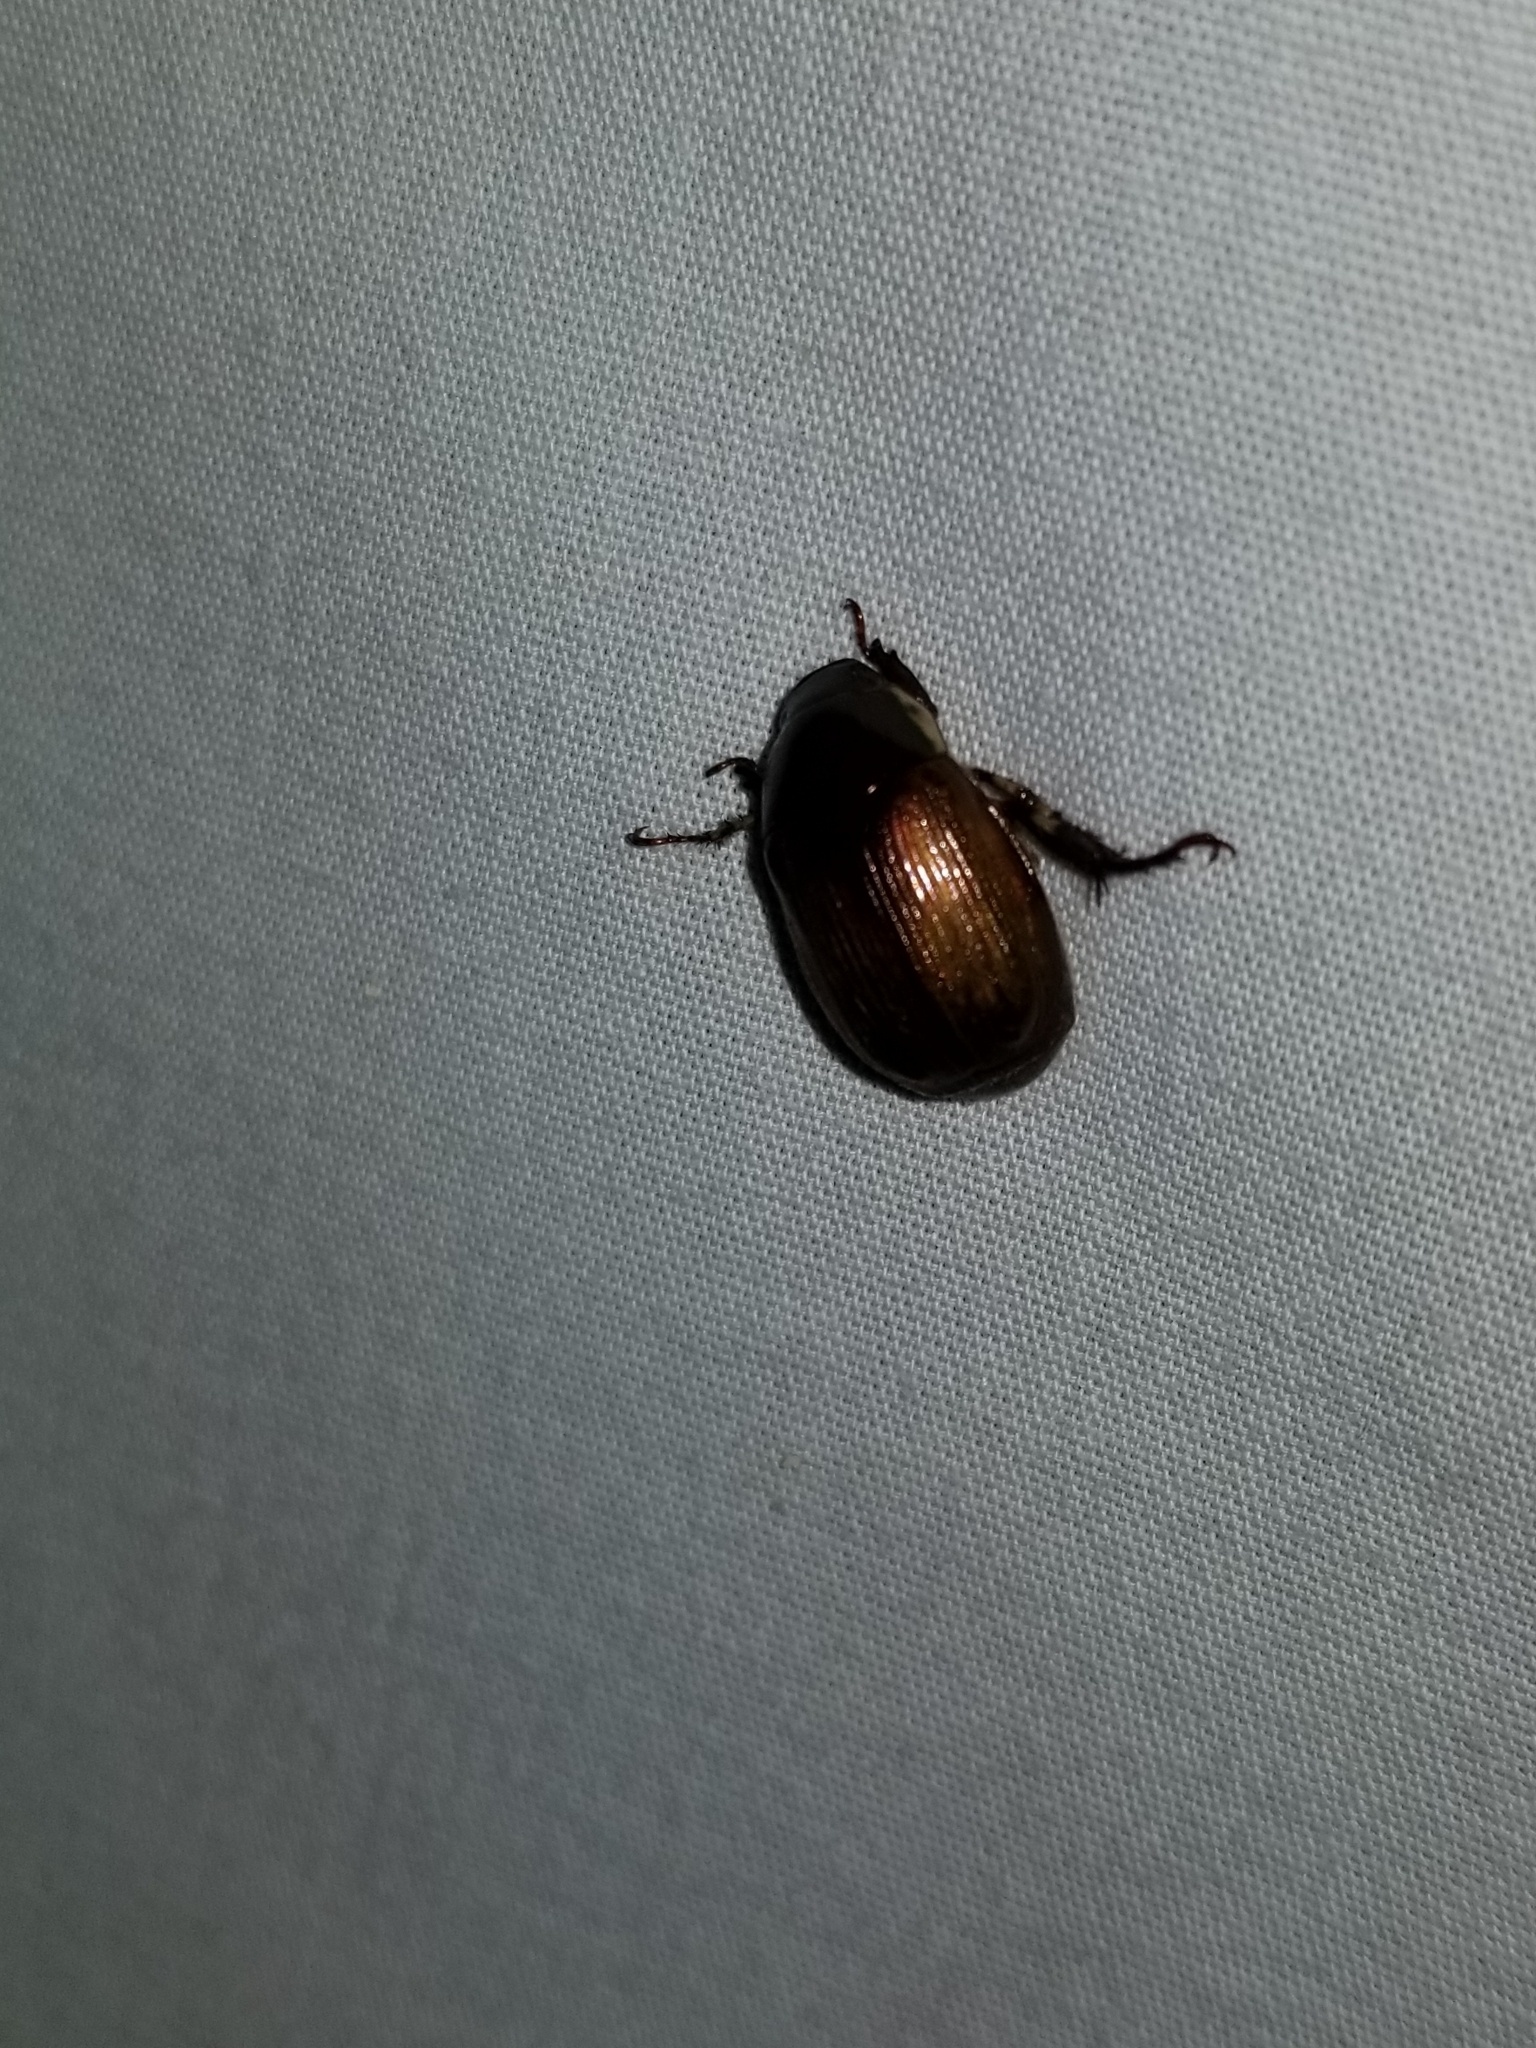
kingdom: Animalia
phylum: Arthropoda
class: Insecta
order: Coleoptera
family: Scarabaeidae
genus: Callistethus
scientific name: Callistethus marginatus
